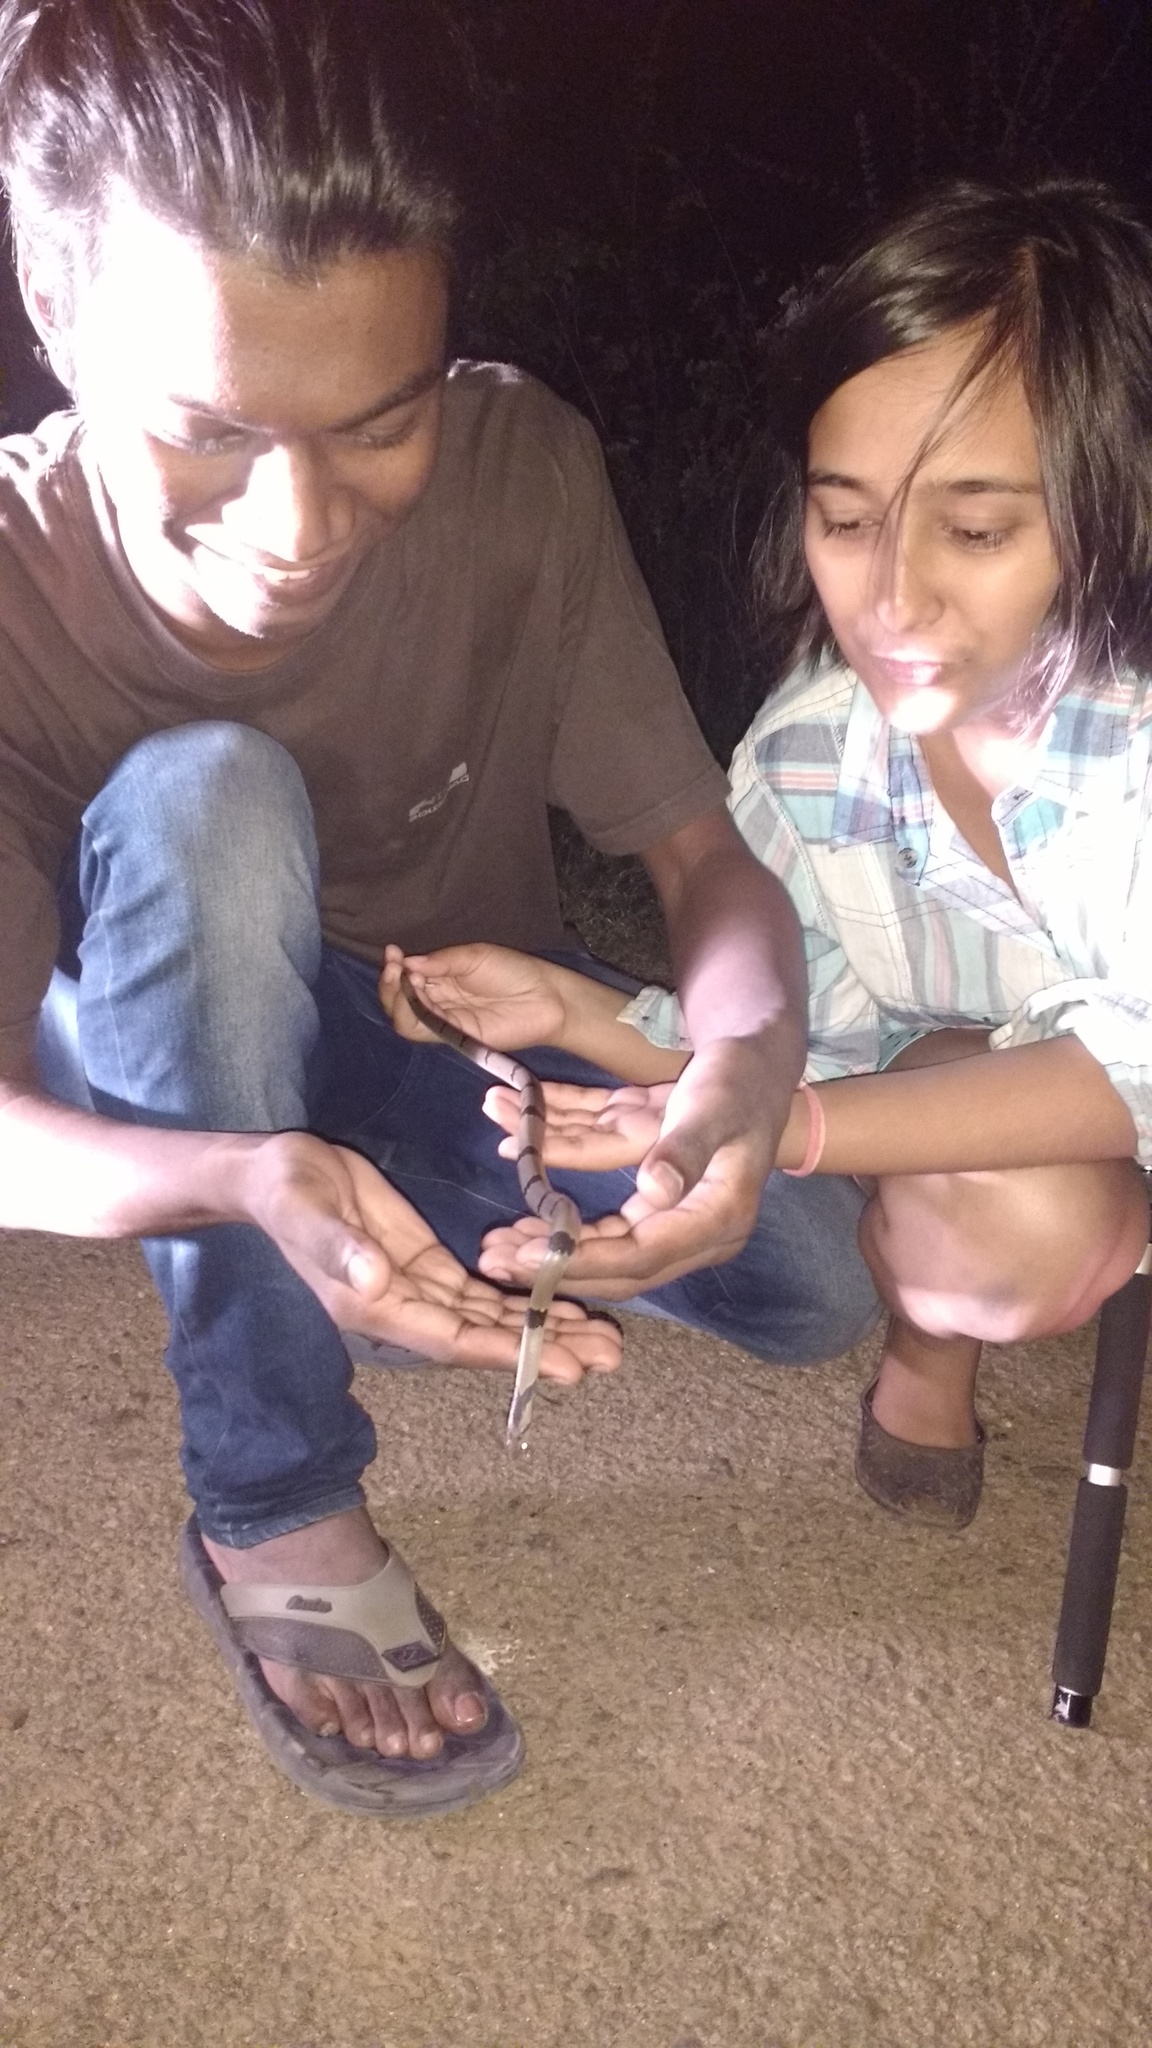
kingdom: Animalia
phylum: Chordata
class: Squamata
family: Colubridae
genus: Oligodon
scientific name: Oligodon arnensis
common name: Banded kukri
